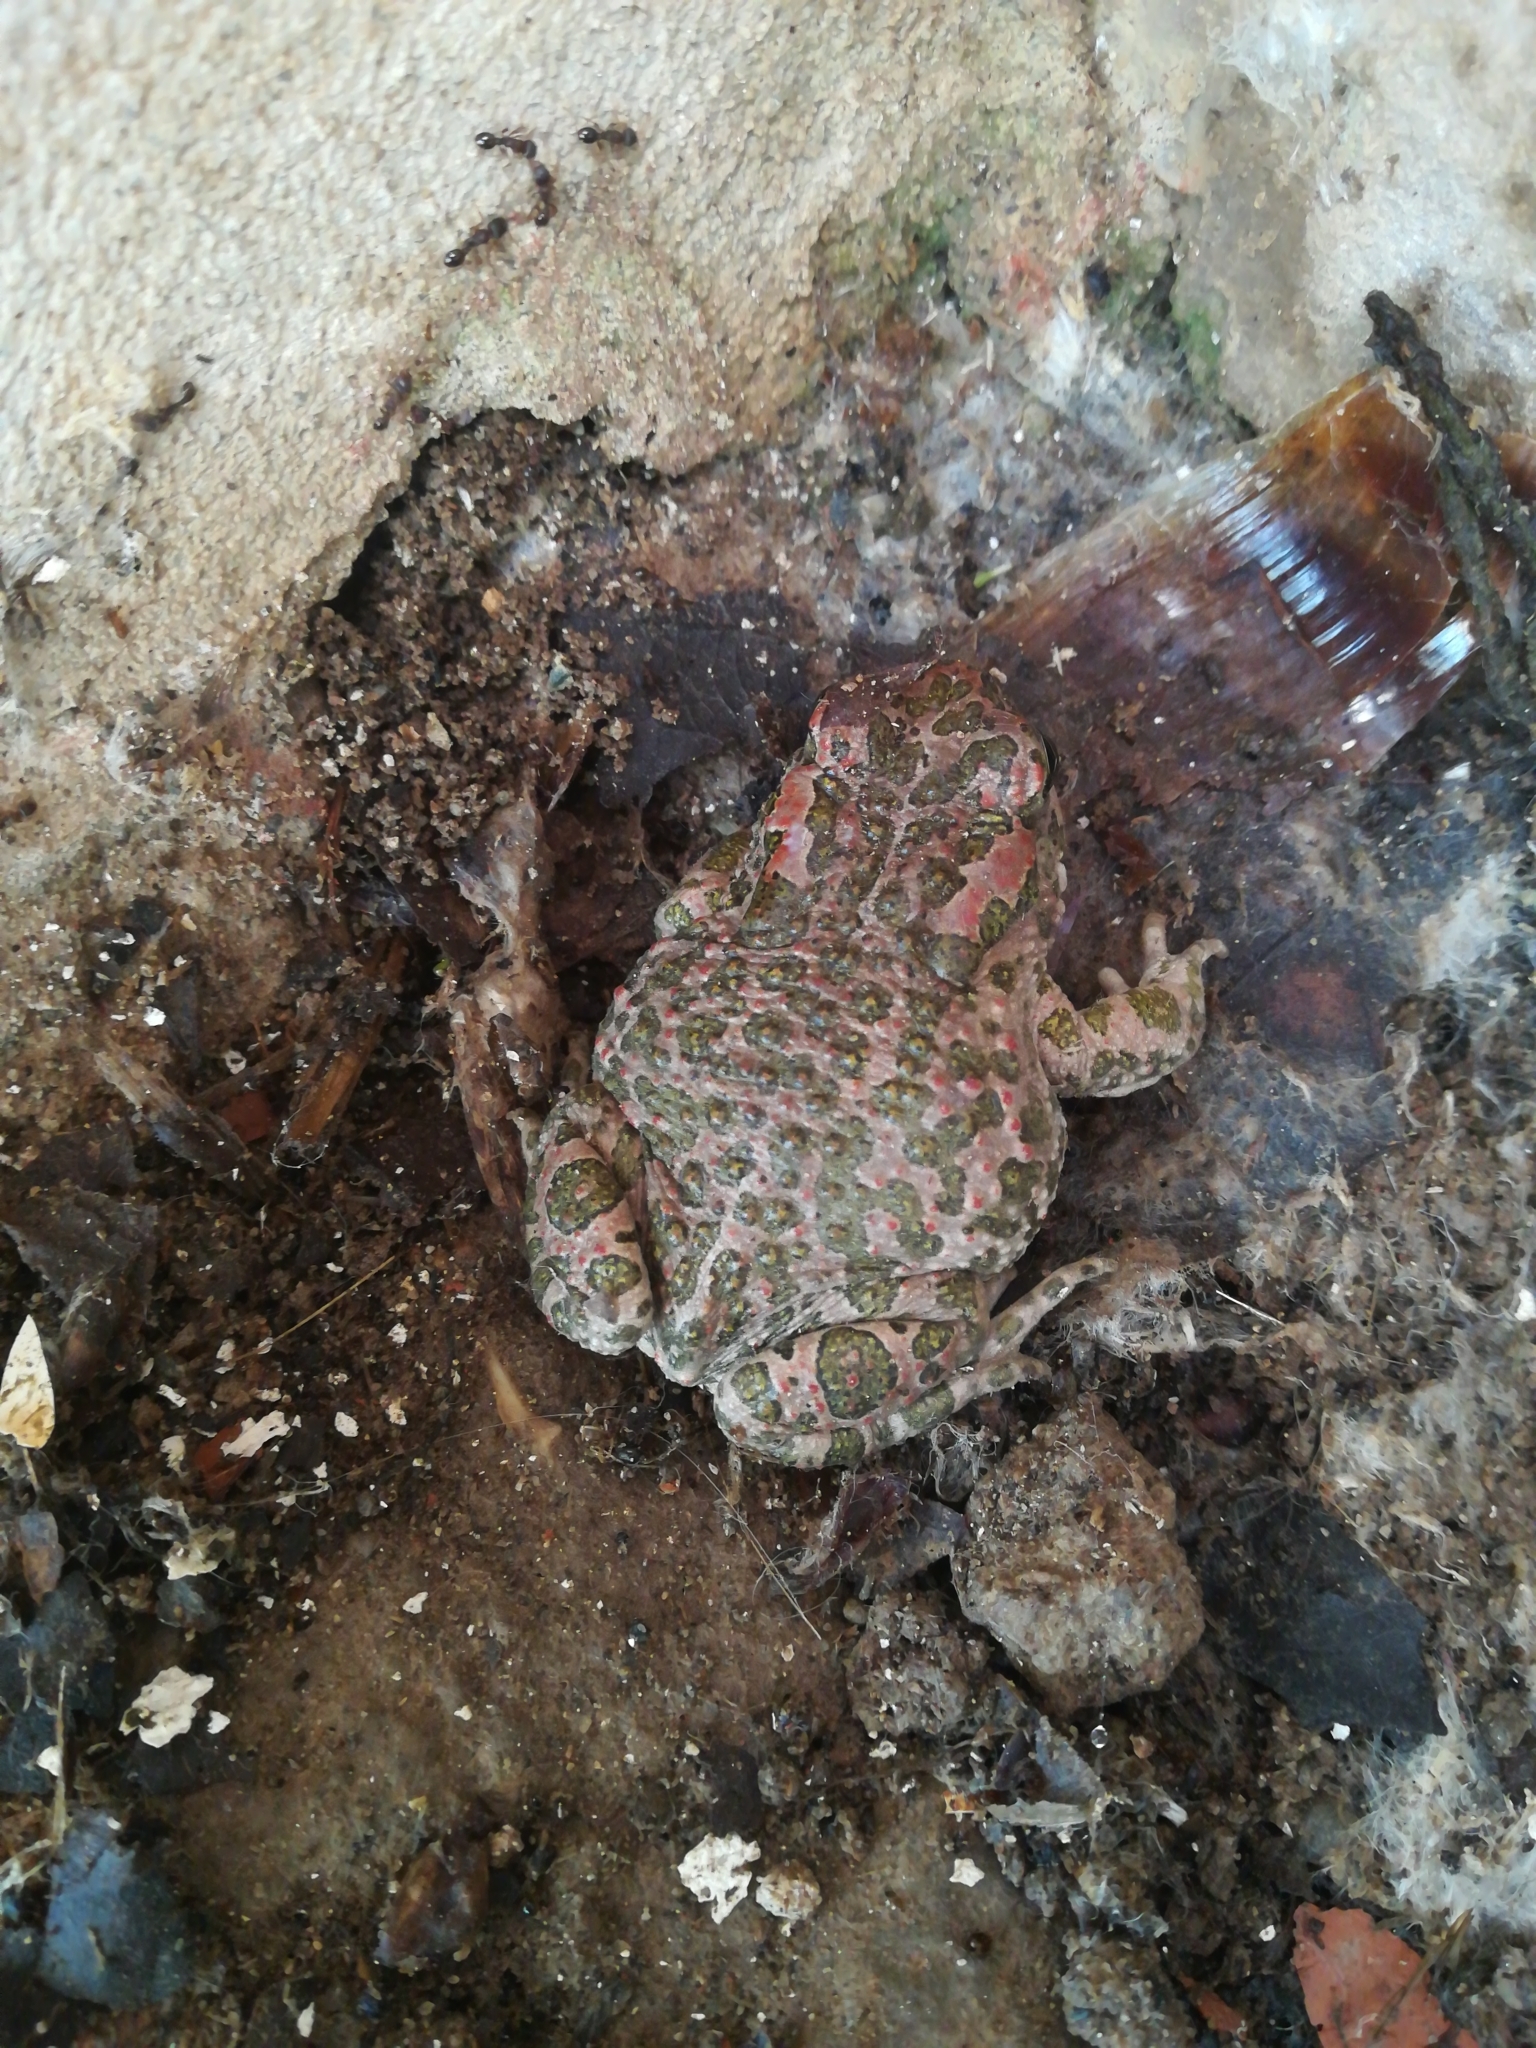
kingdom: Animalia
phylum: Chordata
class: Amphibia
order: Anura
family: Bufonidae
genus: Bufotes
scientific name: Bufotes viridis
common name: European green toad
